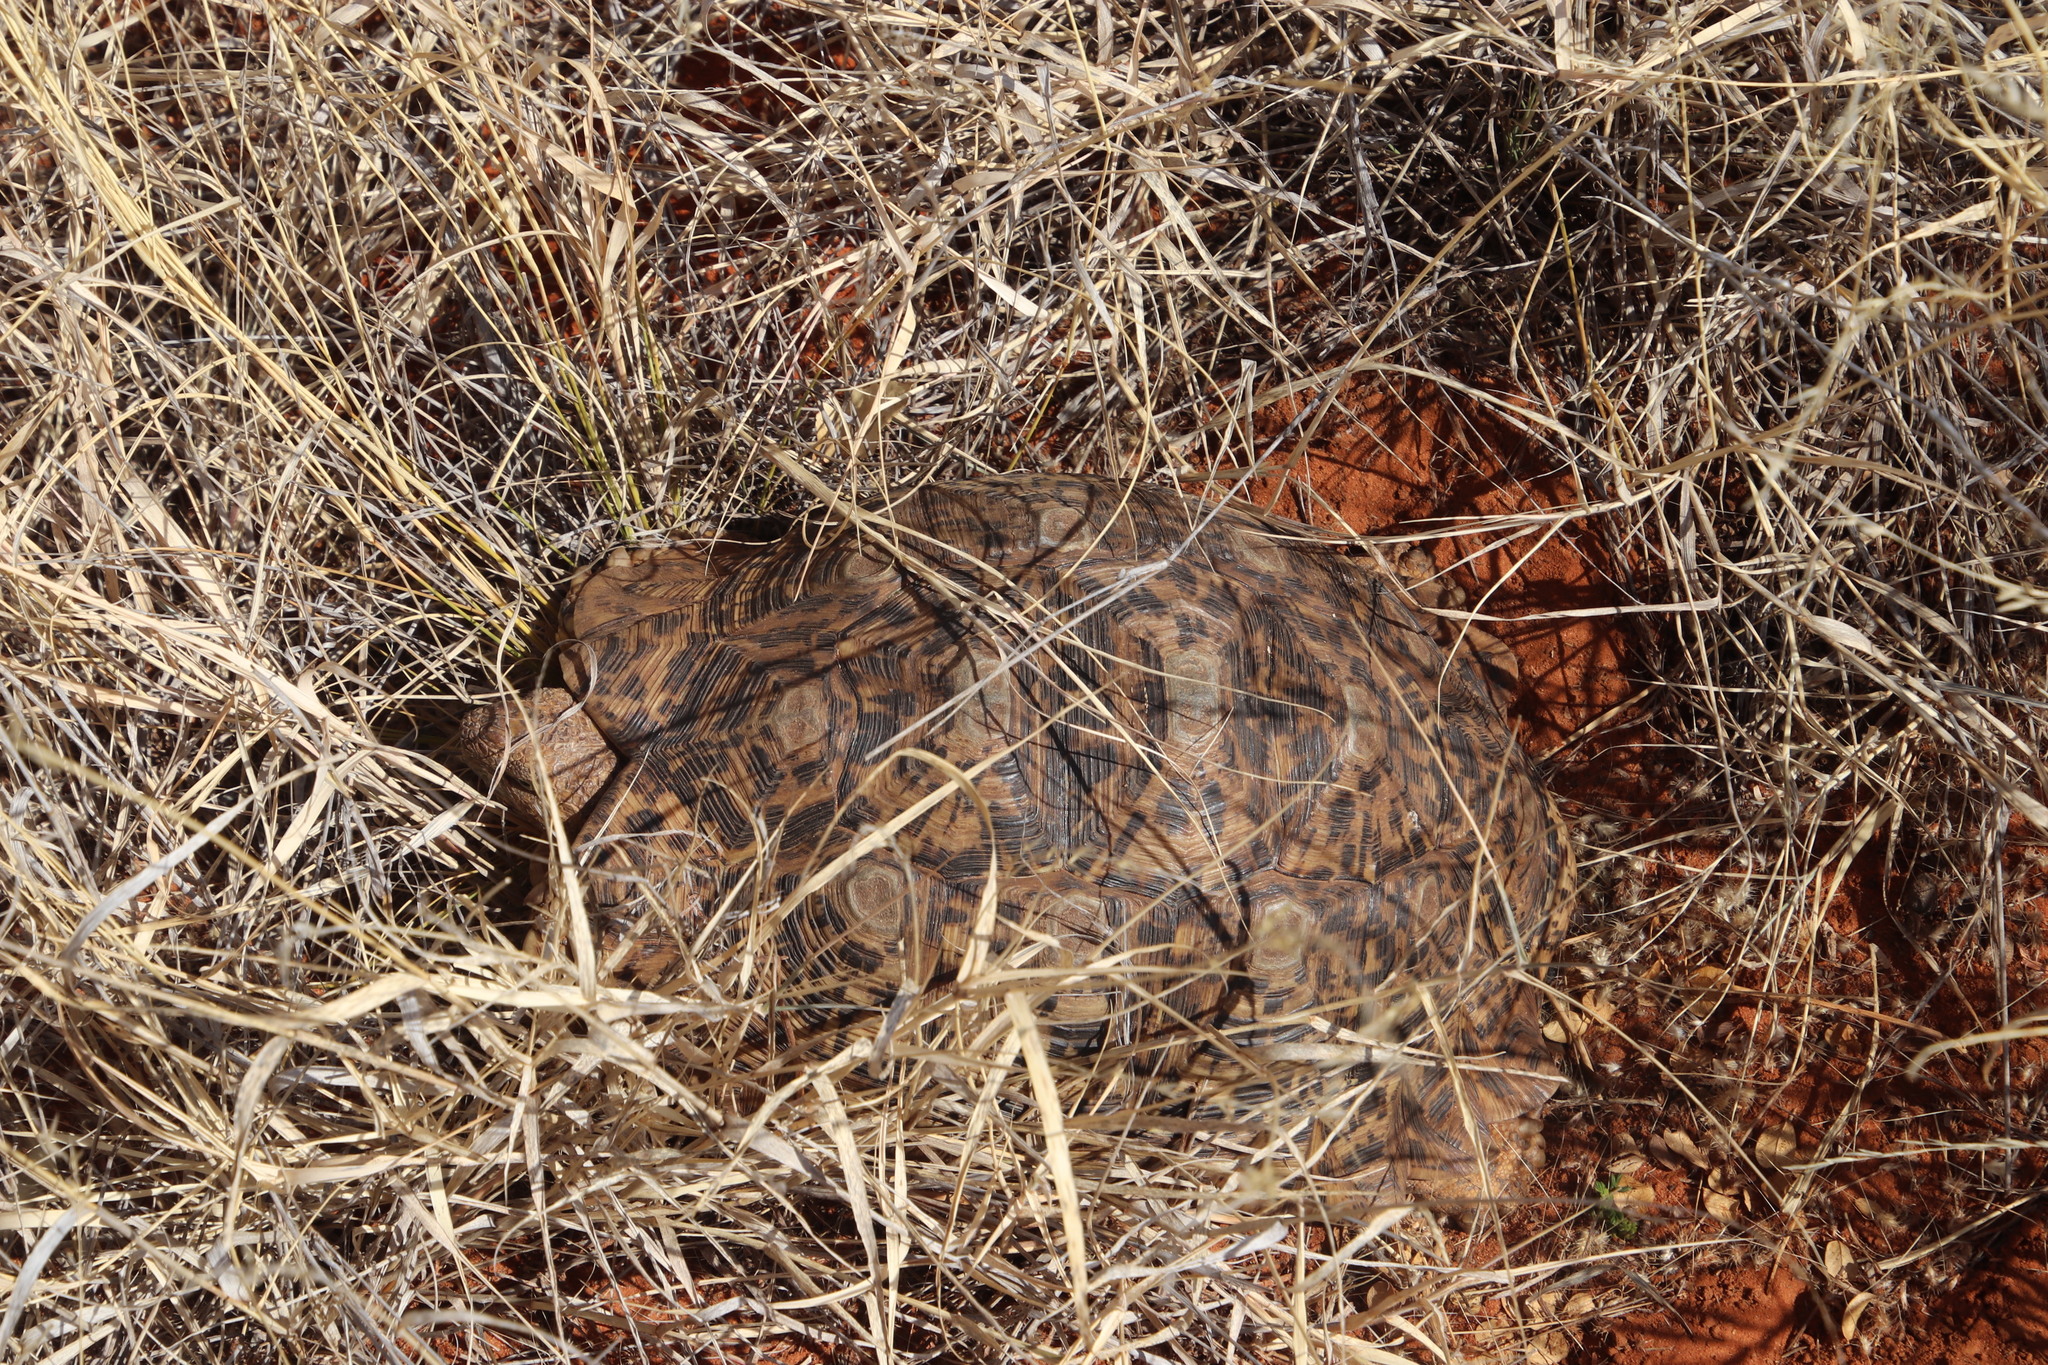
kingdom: Animalia
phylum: Chordata
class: Testudines
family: Testudinidae
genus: Stigmochelys
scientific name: Stigmochelys pardalis
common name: Leopard tortoise
